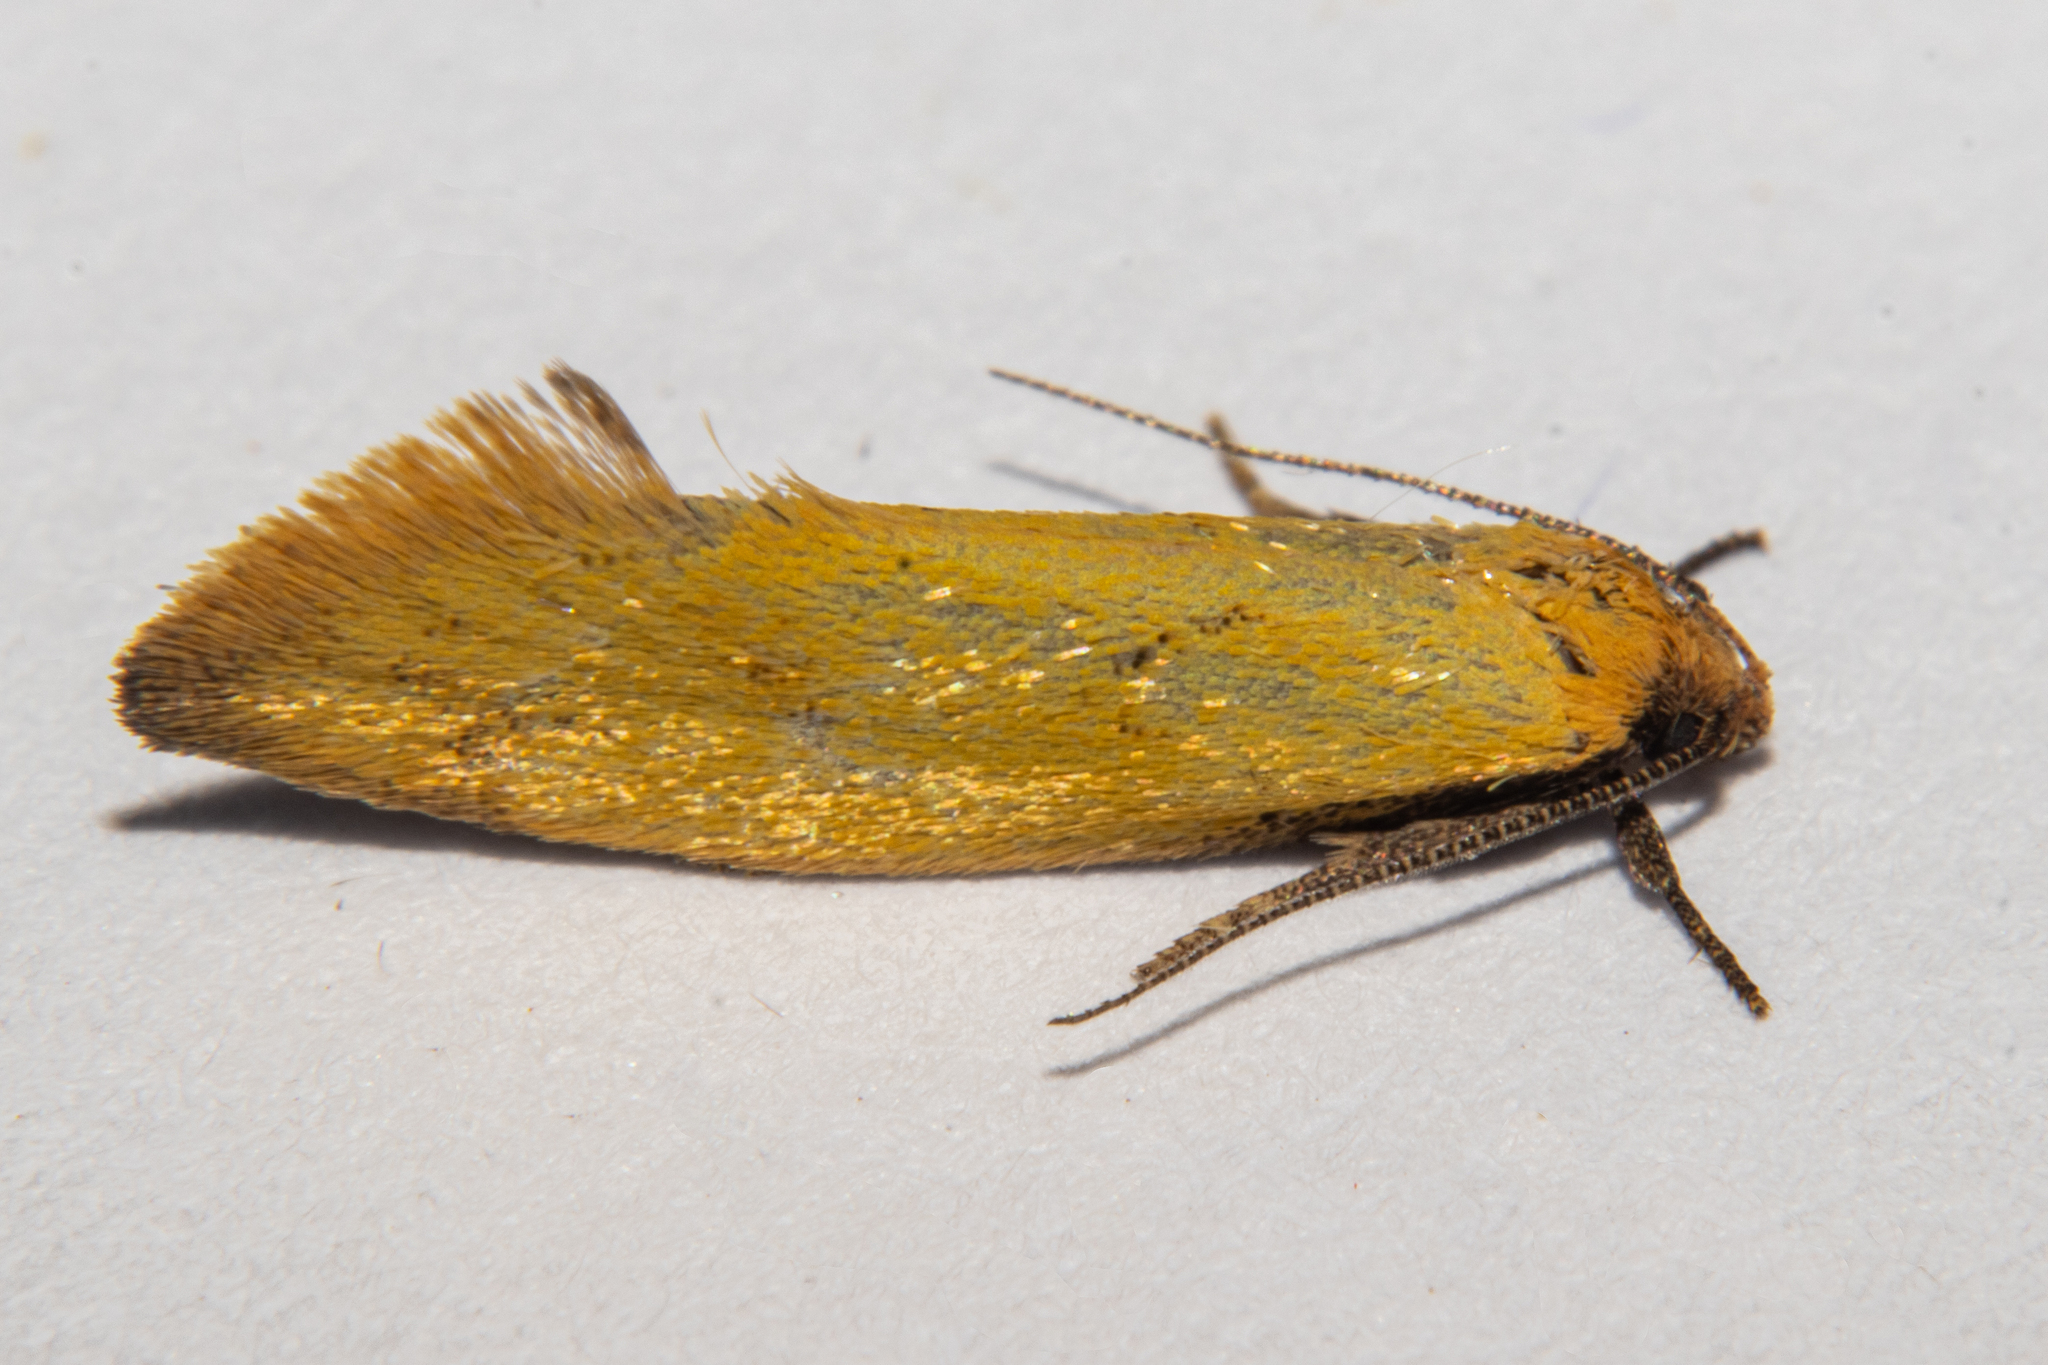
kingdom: Animalia
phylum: Arthropoda
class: Insecta
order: Lepidoptera
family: Oecophoridae
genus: Tingena
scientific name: Tingena melinella
